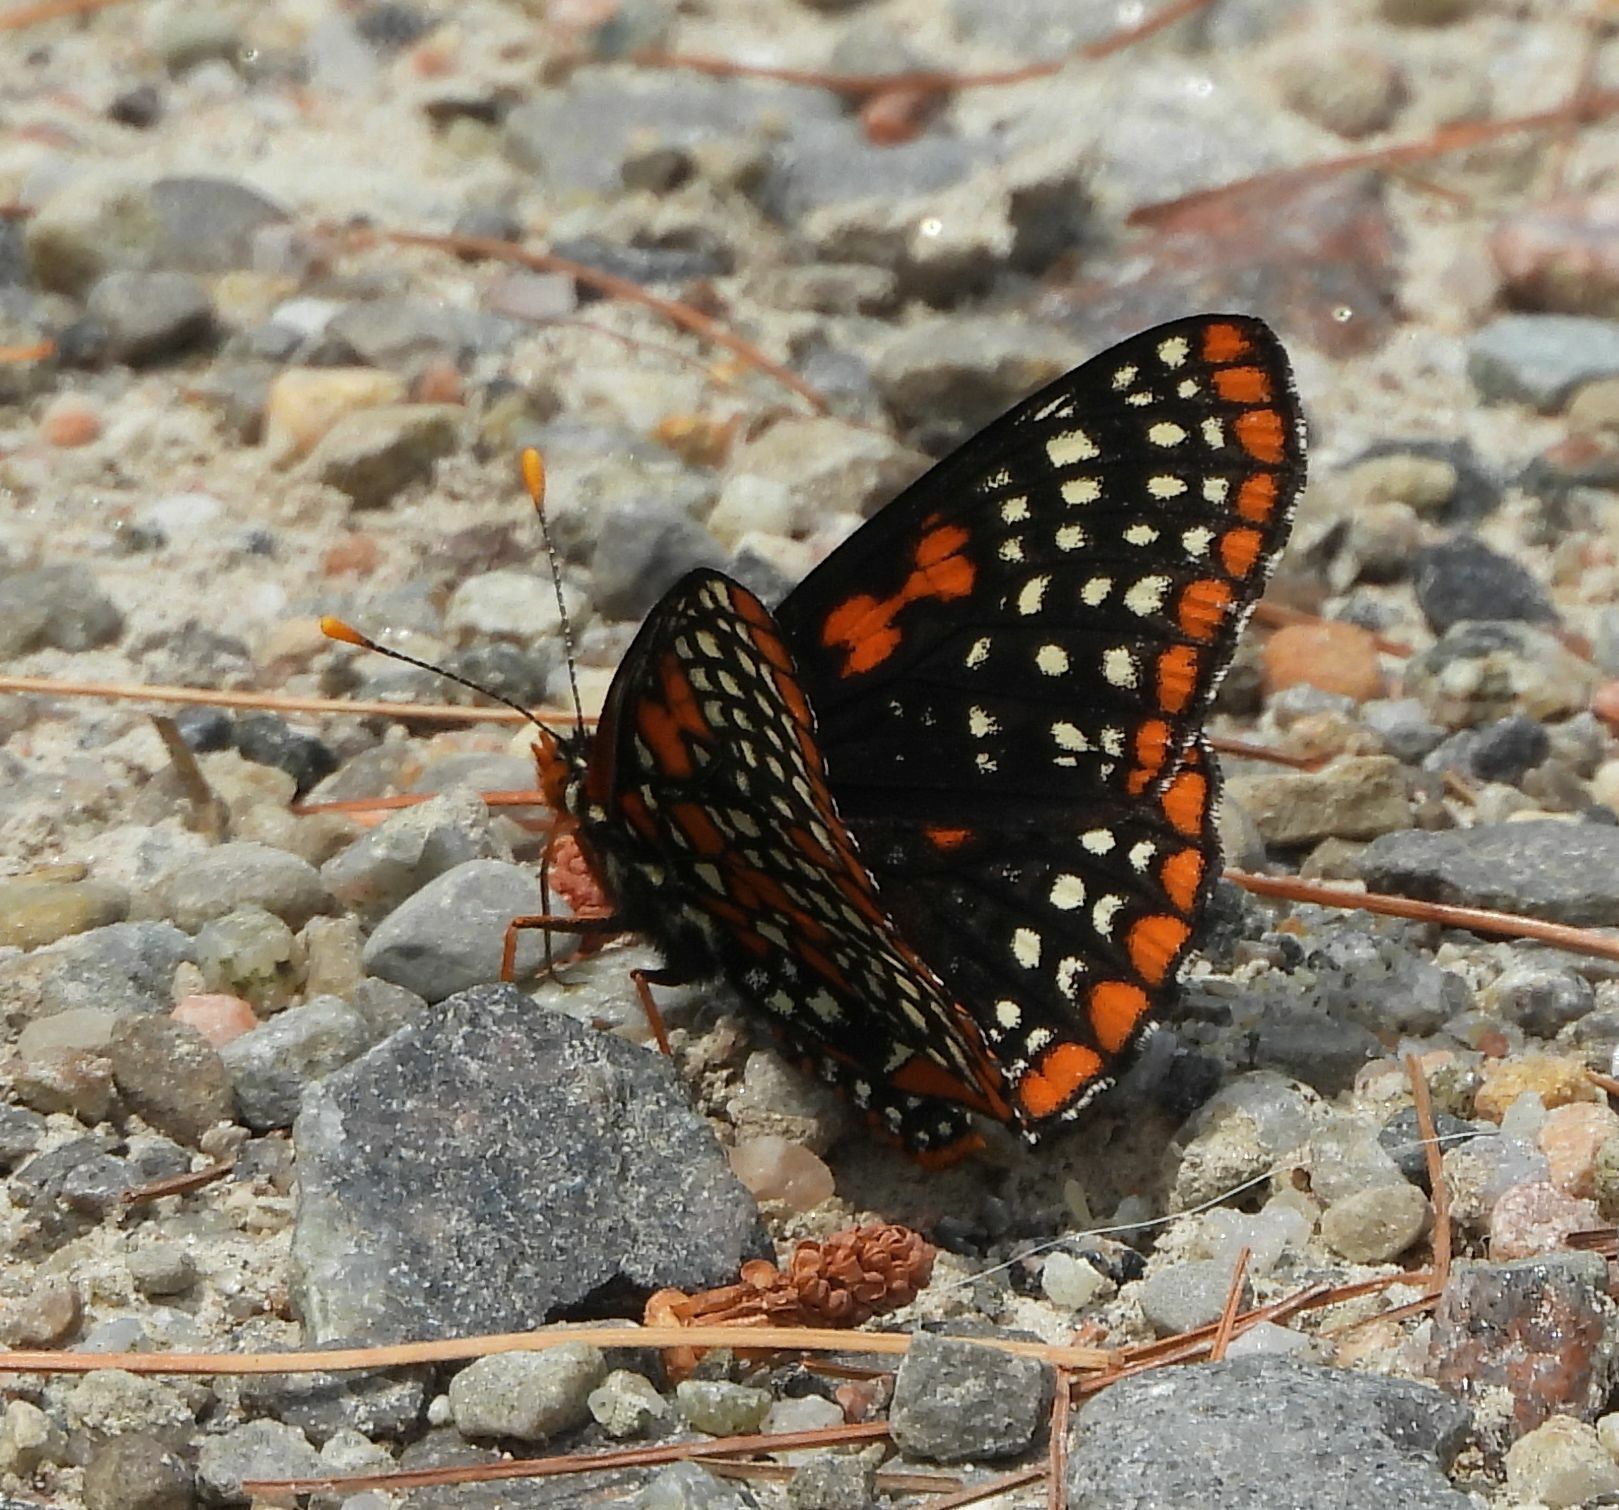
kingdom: Animalia
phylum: Arthropoda
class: Insecta
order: Lepidoptera
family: Nymphalidae
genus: Euphydryas
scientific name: Euphydryas phaeton
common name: Baltimore checkerspot
